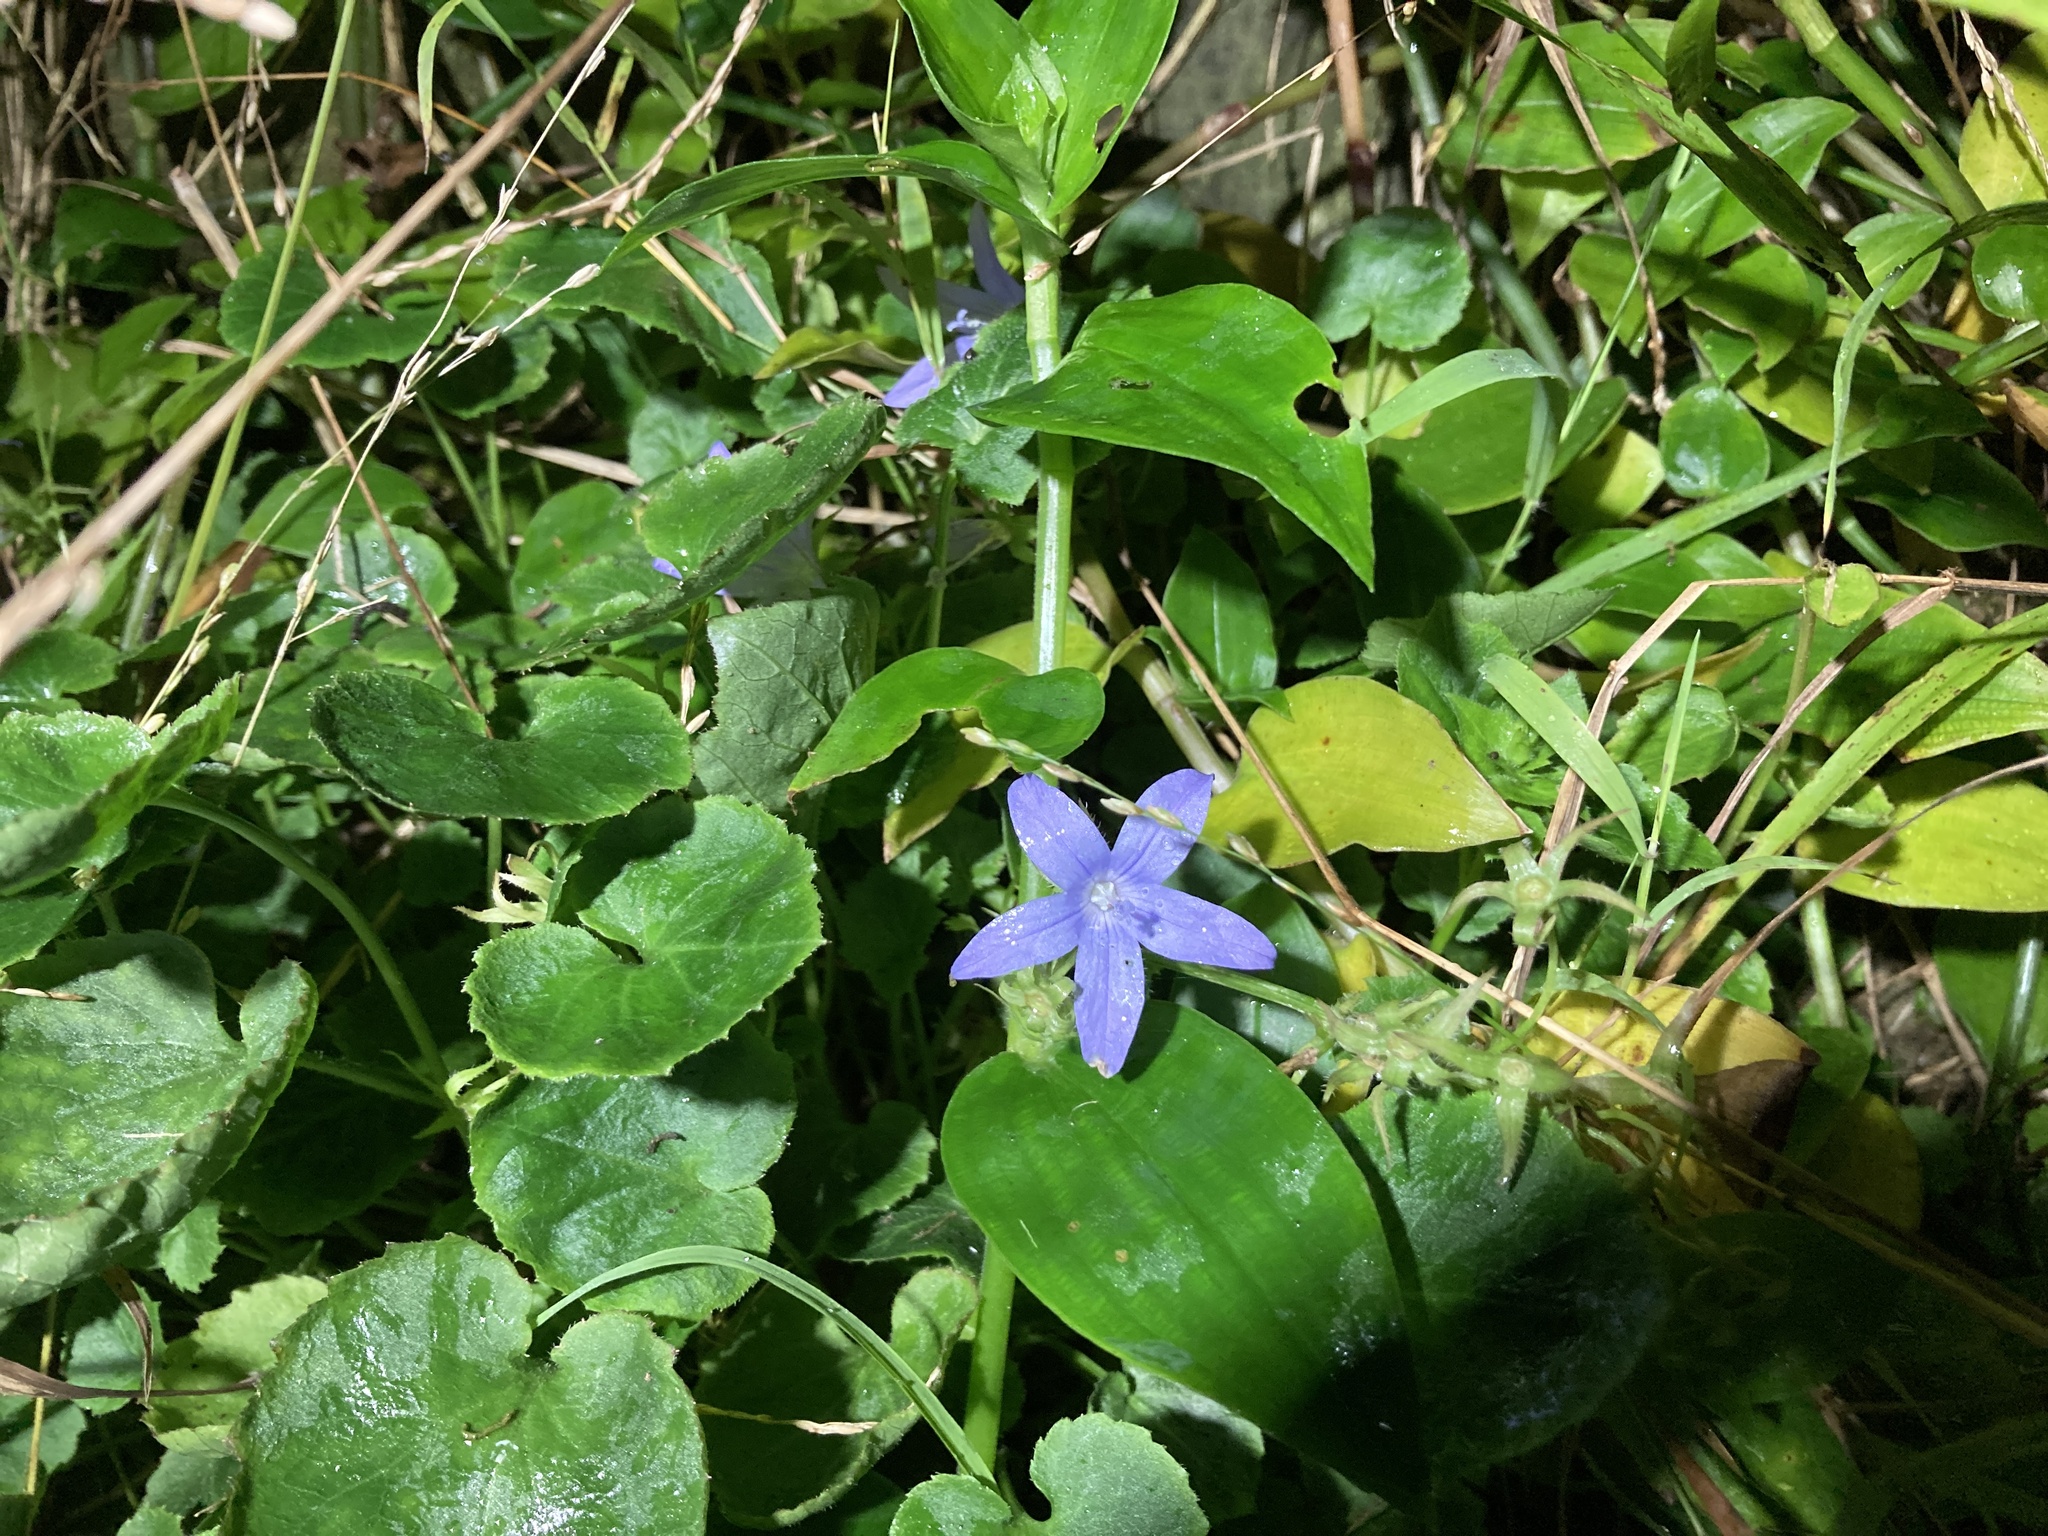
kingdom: Plantae
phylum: Tracheophyta
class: Magnoliopsida
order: Asterales
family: Campanulaceae
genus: Campanula
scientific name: Campanula poscharskyana
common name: Trailing bellflower
